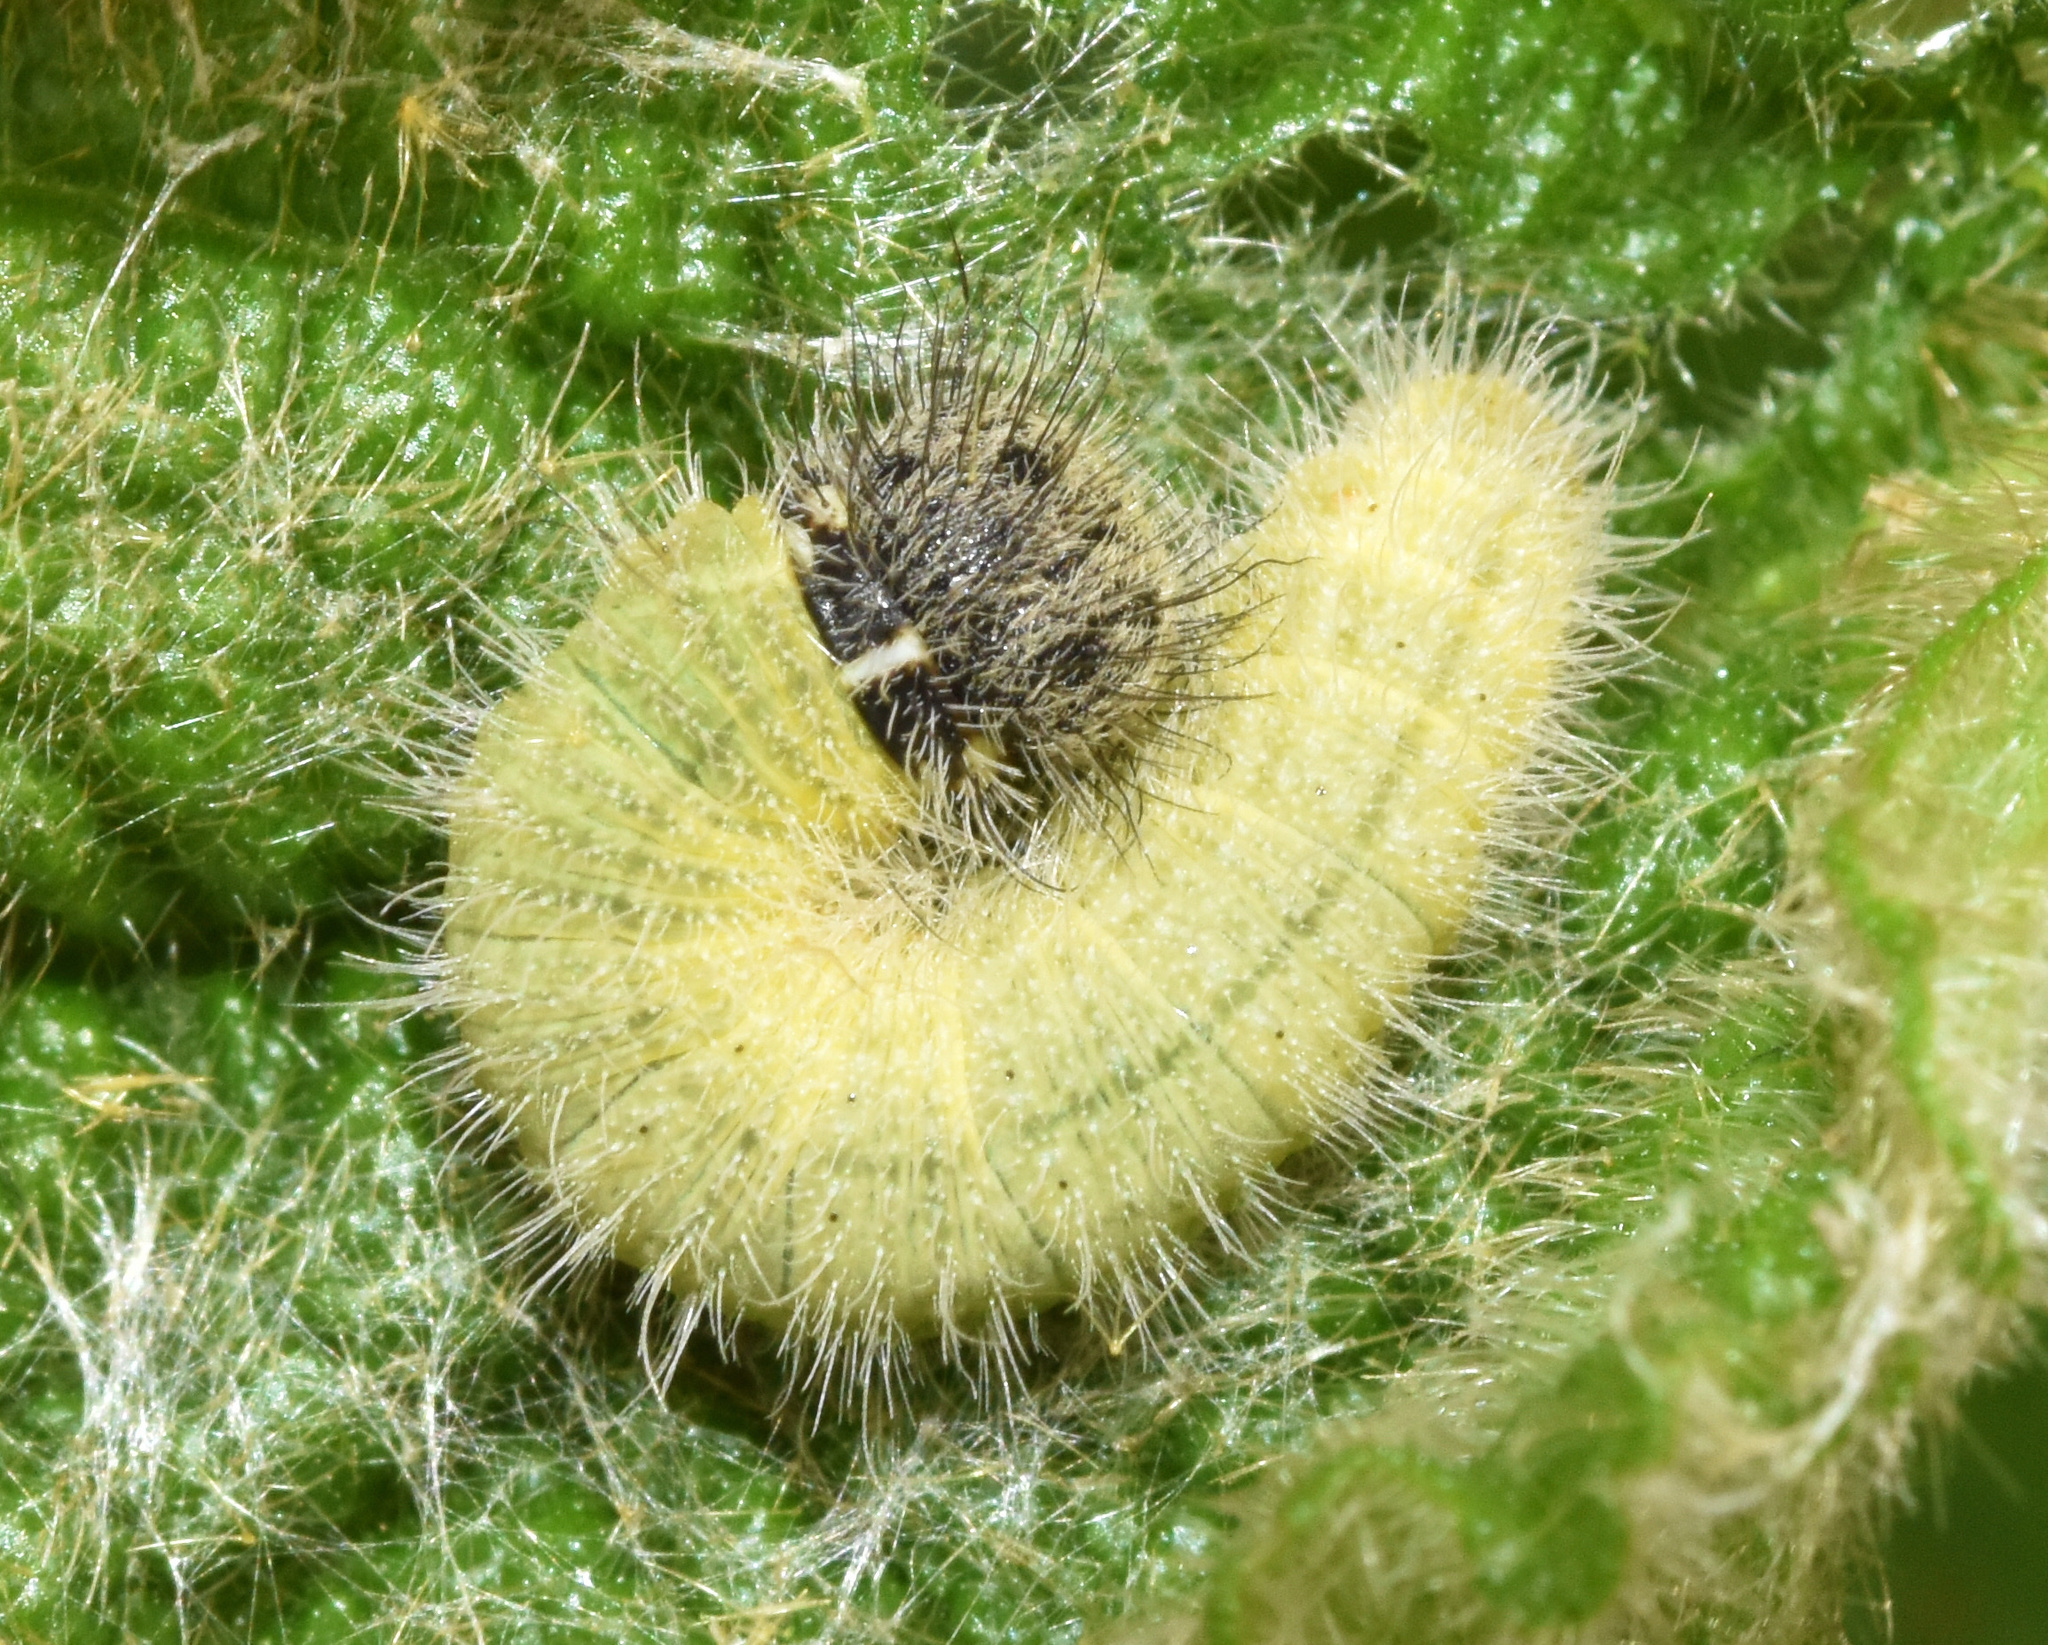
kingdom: Animalia
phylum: Arthropoda
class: Insecta
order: Lepidoptera
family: Hesperiidae
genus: Spialia
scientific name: Spialia spio
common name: Mountain sandman
